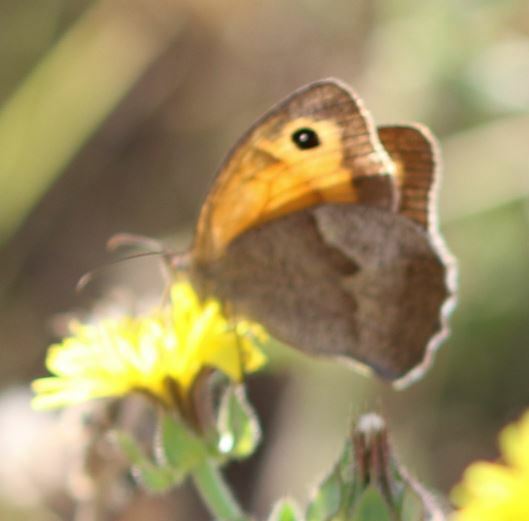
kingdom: Animalia
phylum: Arthropoda
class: Insecta
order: Lepidoptera
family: Nymphalidae
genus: Maniola
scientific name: Maniola jurtina
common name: Meadow brown
